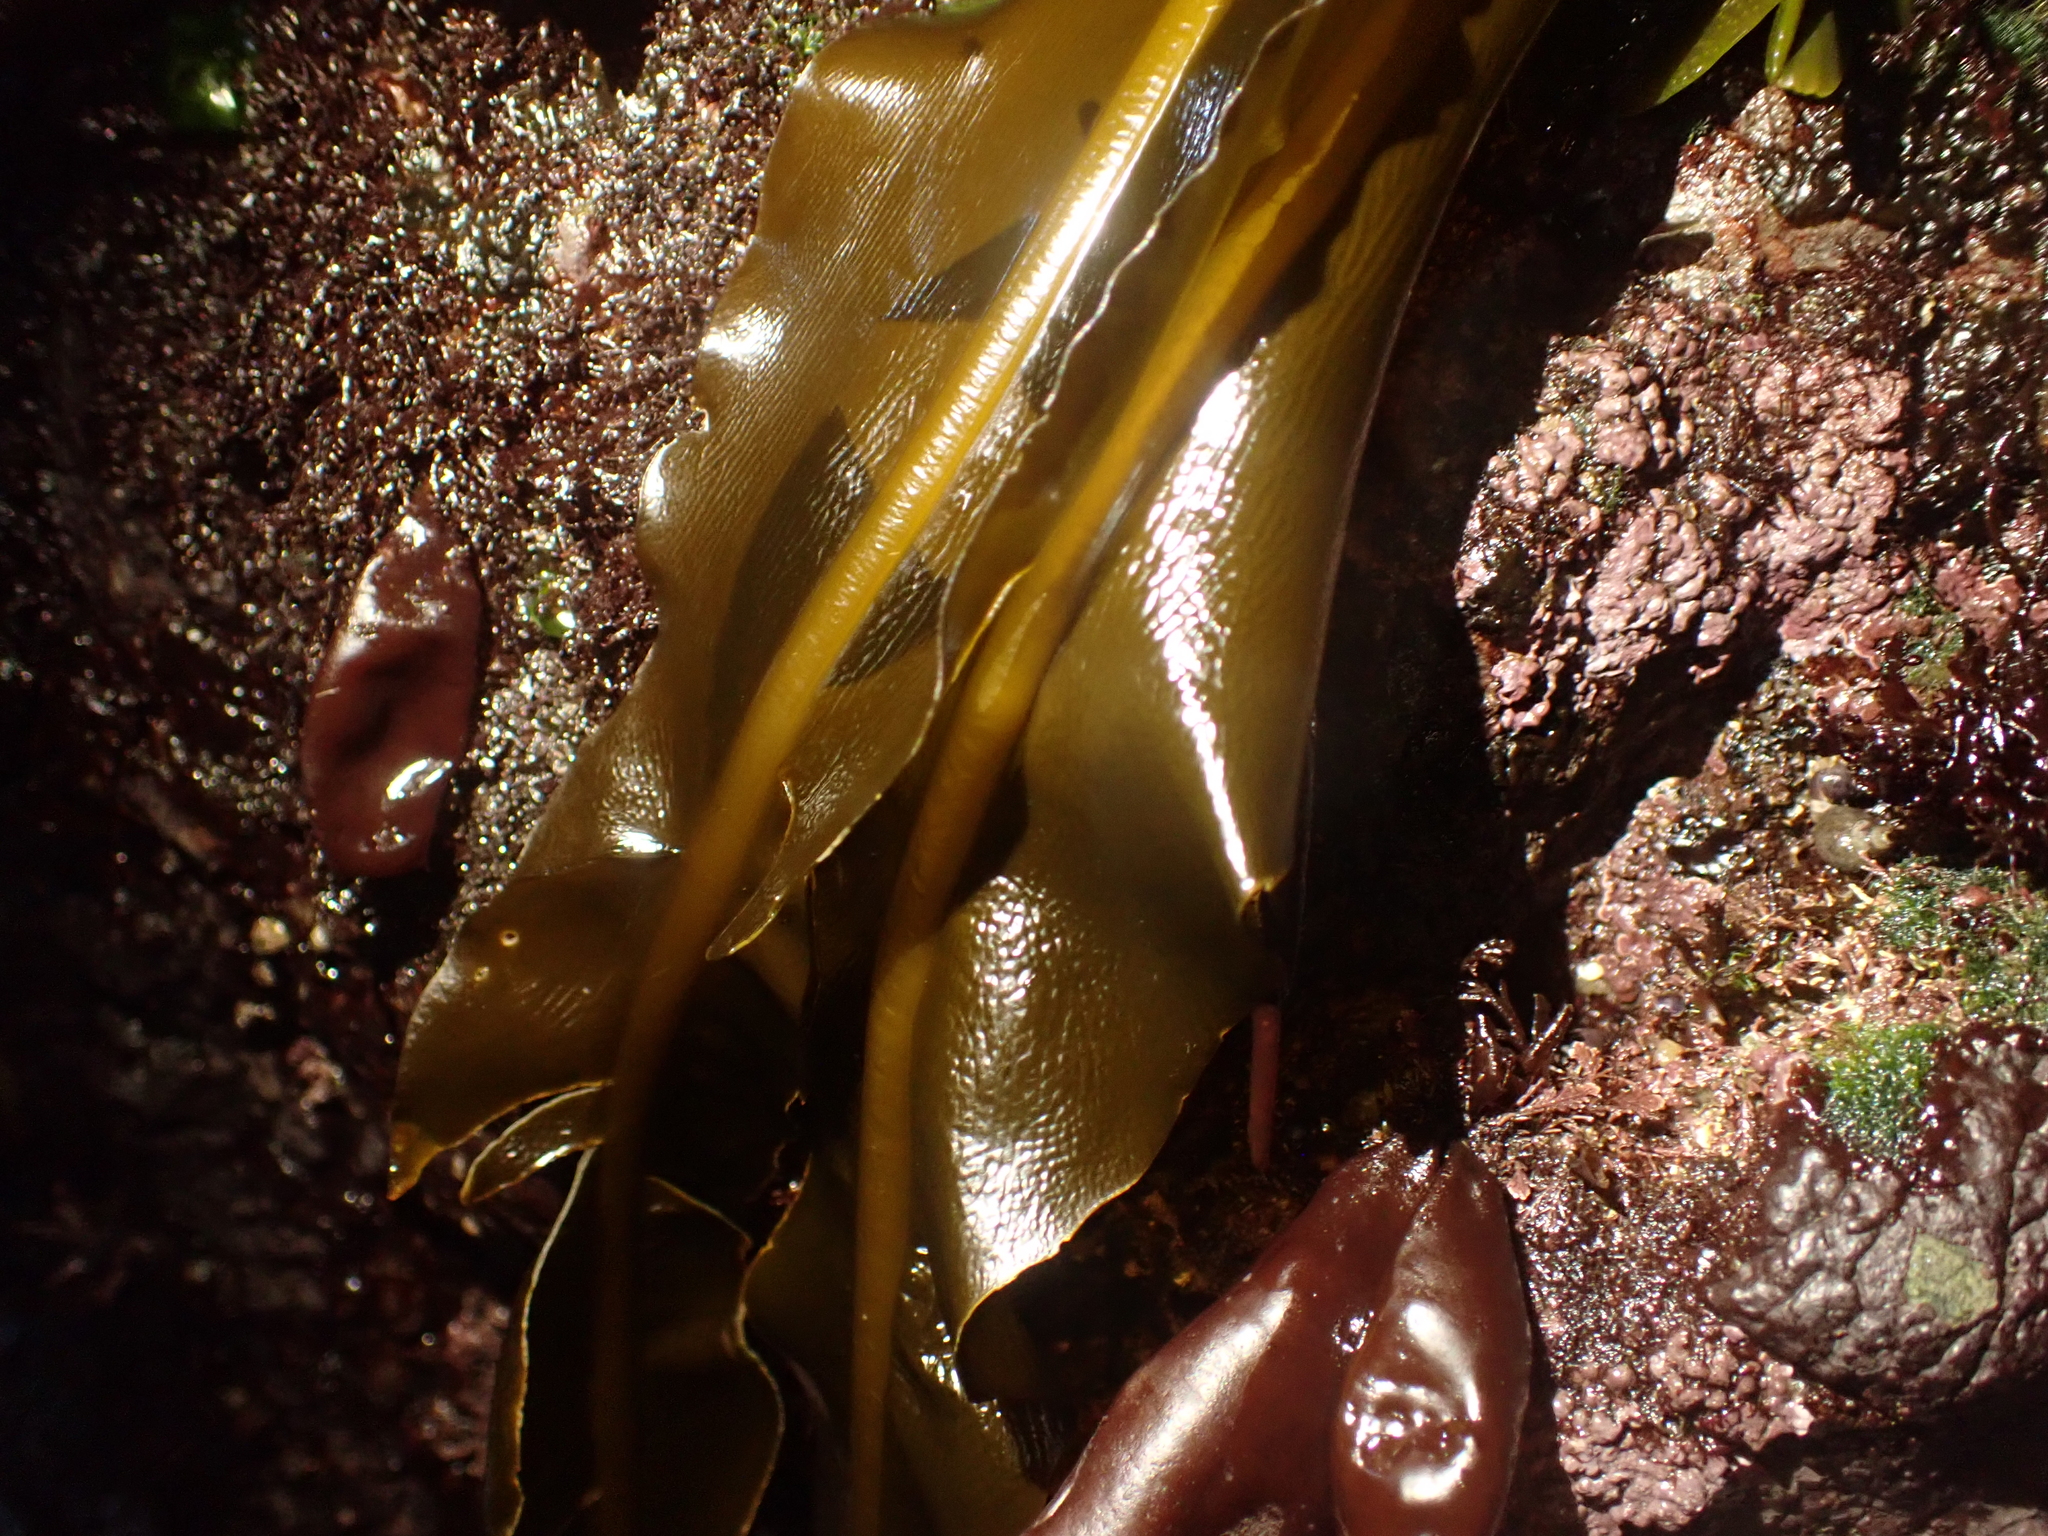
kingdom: Chromista
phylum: Ochrophyta
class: Phaeophyceae
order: Laminariales
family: Alariaceae
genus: Alaria
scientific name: Alaria marginata
